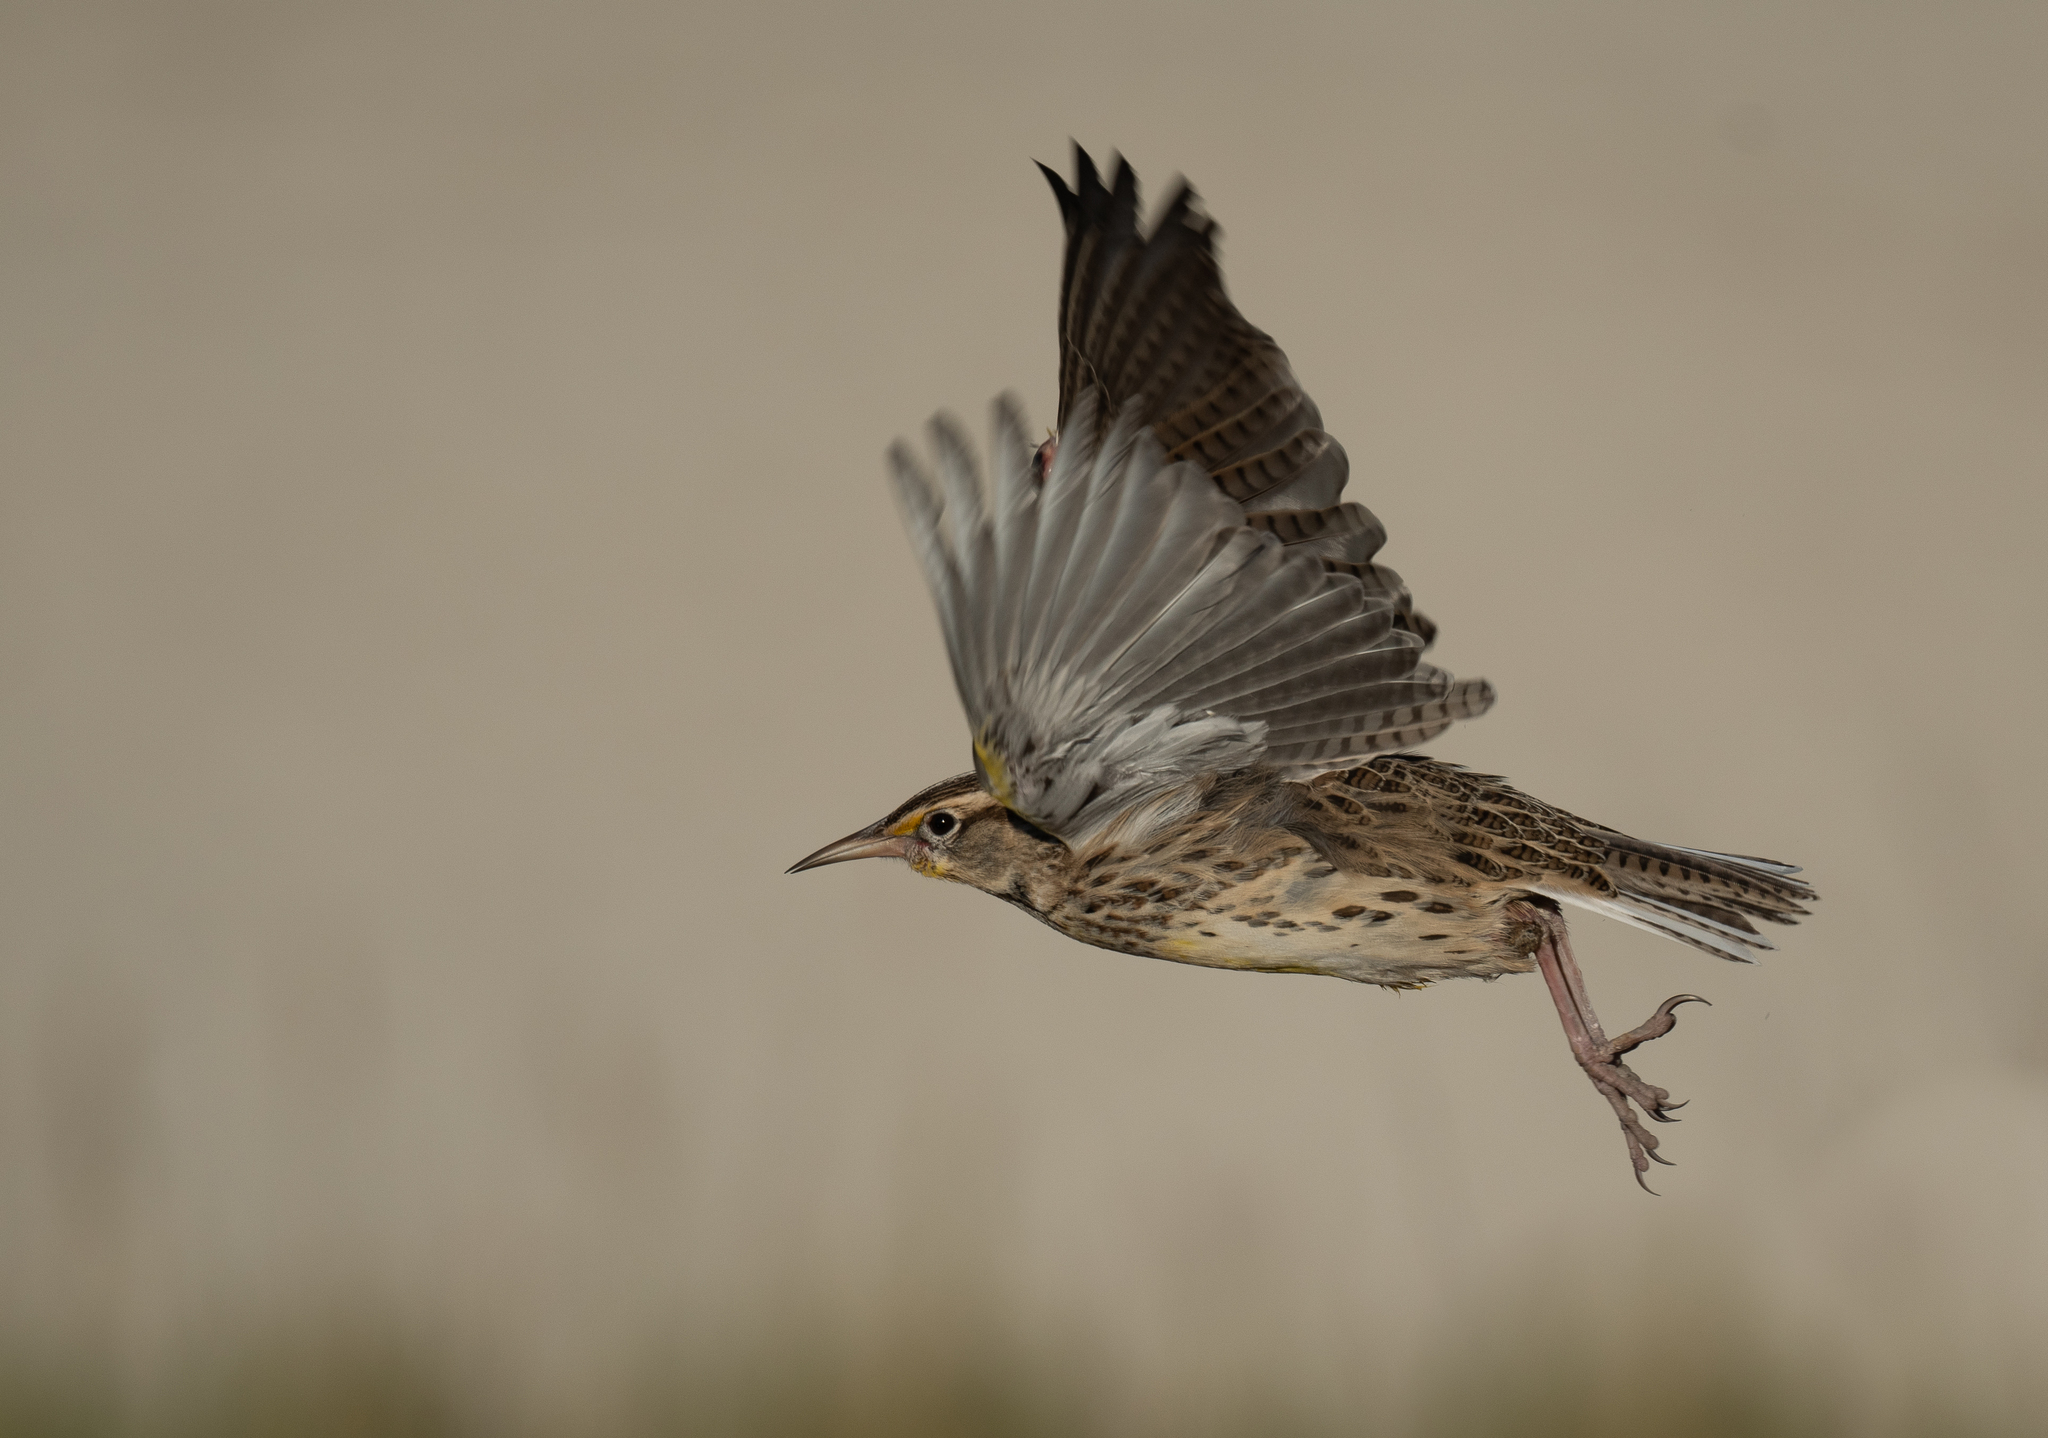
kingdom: Animalia
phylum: Chordata
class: Aves
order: Passeriformes
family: Icteridae
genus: Sturnella
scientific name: Sturnella neglecta
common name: Western meadowlark
